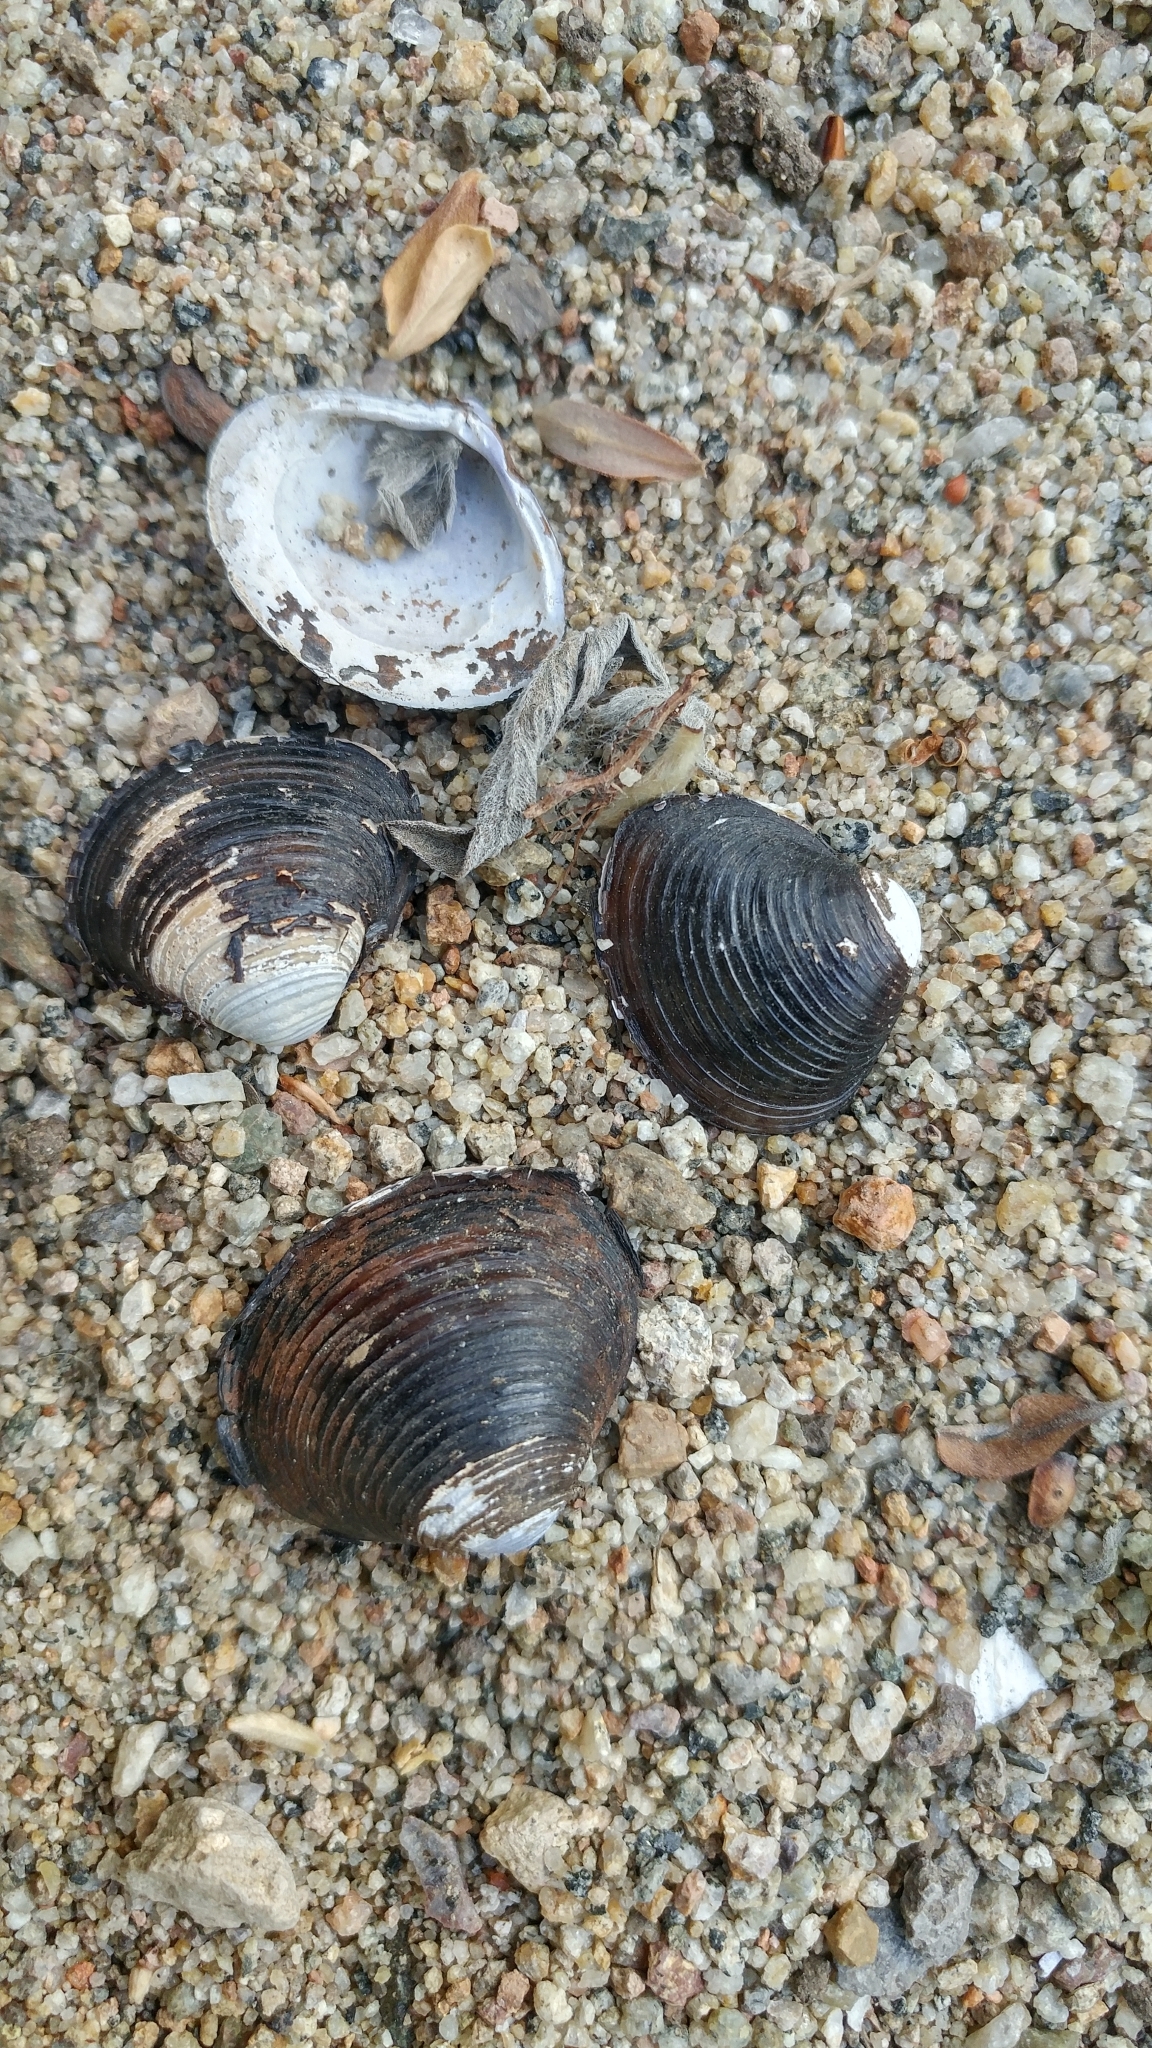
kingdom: Animalia
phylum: Mollusca
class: Bivalvia
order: Venerida
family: Cyrenidae
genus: Corbicula
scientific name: Corbicula fluminea
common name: Asian clam
